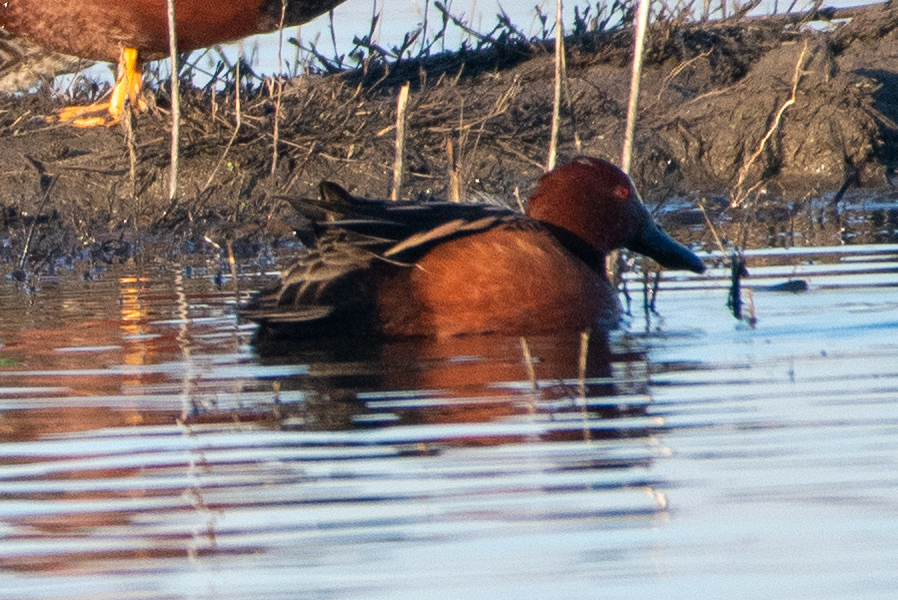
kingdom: Animalia
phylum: Chordata
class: Aves
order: Anseriformes
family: Anatidae
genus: Spatula
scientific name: Spatula cyanoptera
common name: Cinnamon teal
